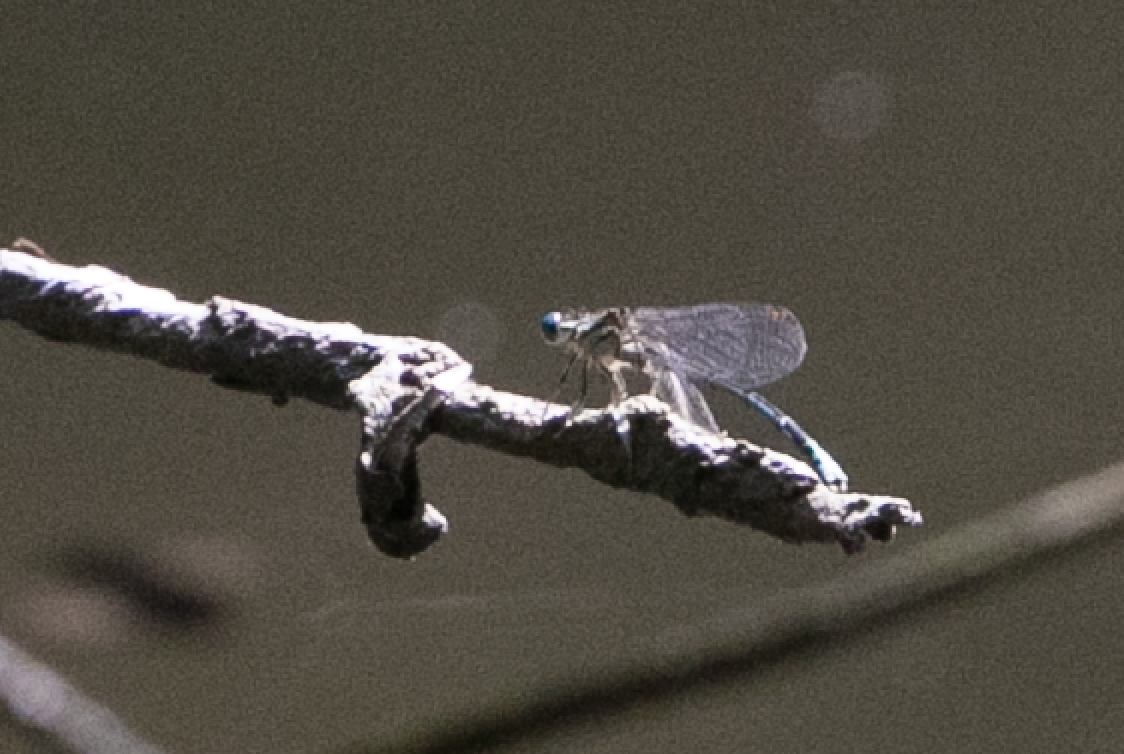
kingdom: Animalia
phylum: Arthropoda
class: Insecta
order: Odonata
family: Platycnemididae
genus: Platycnemis
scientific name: Platycnemis pennipes
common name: White-legged damselfly
